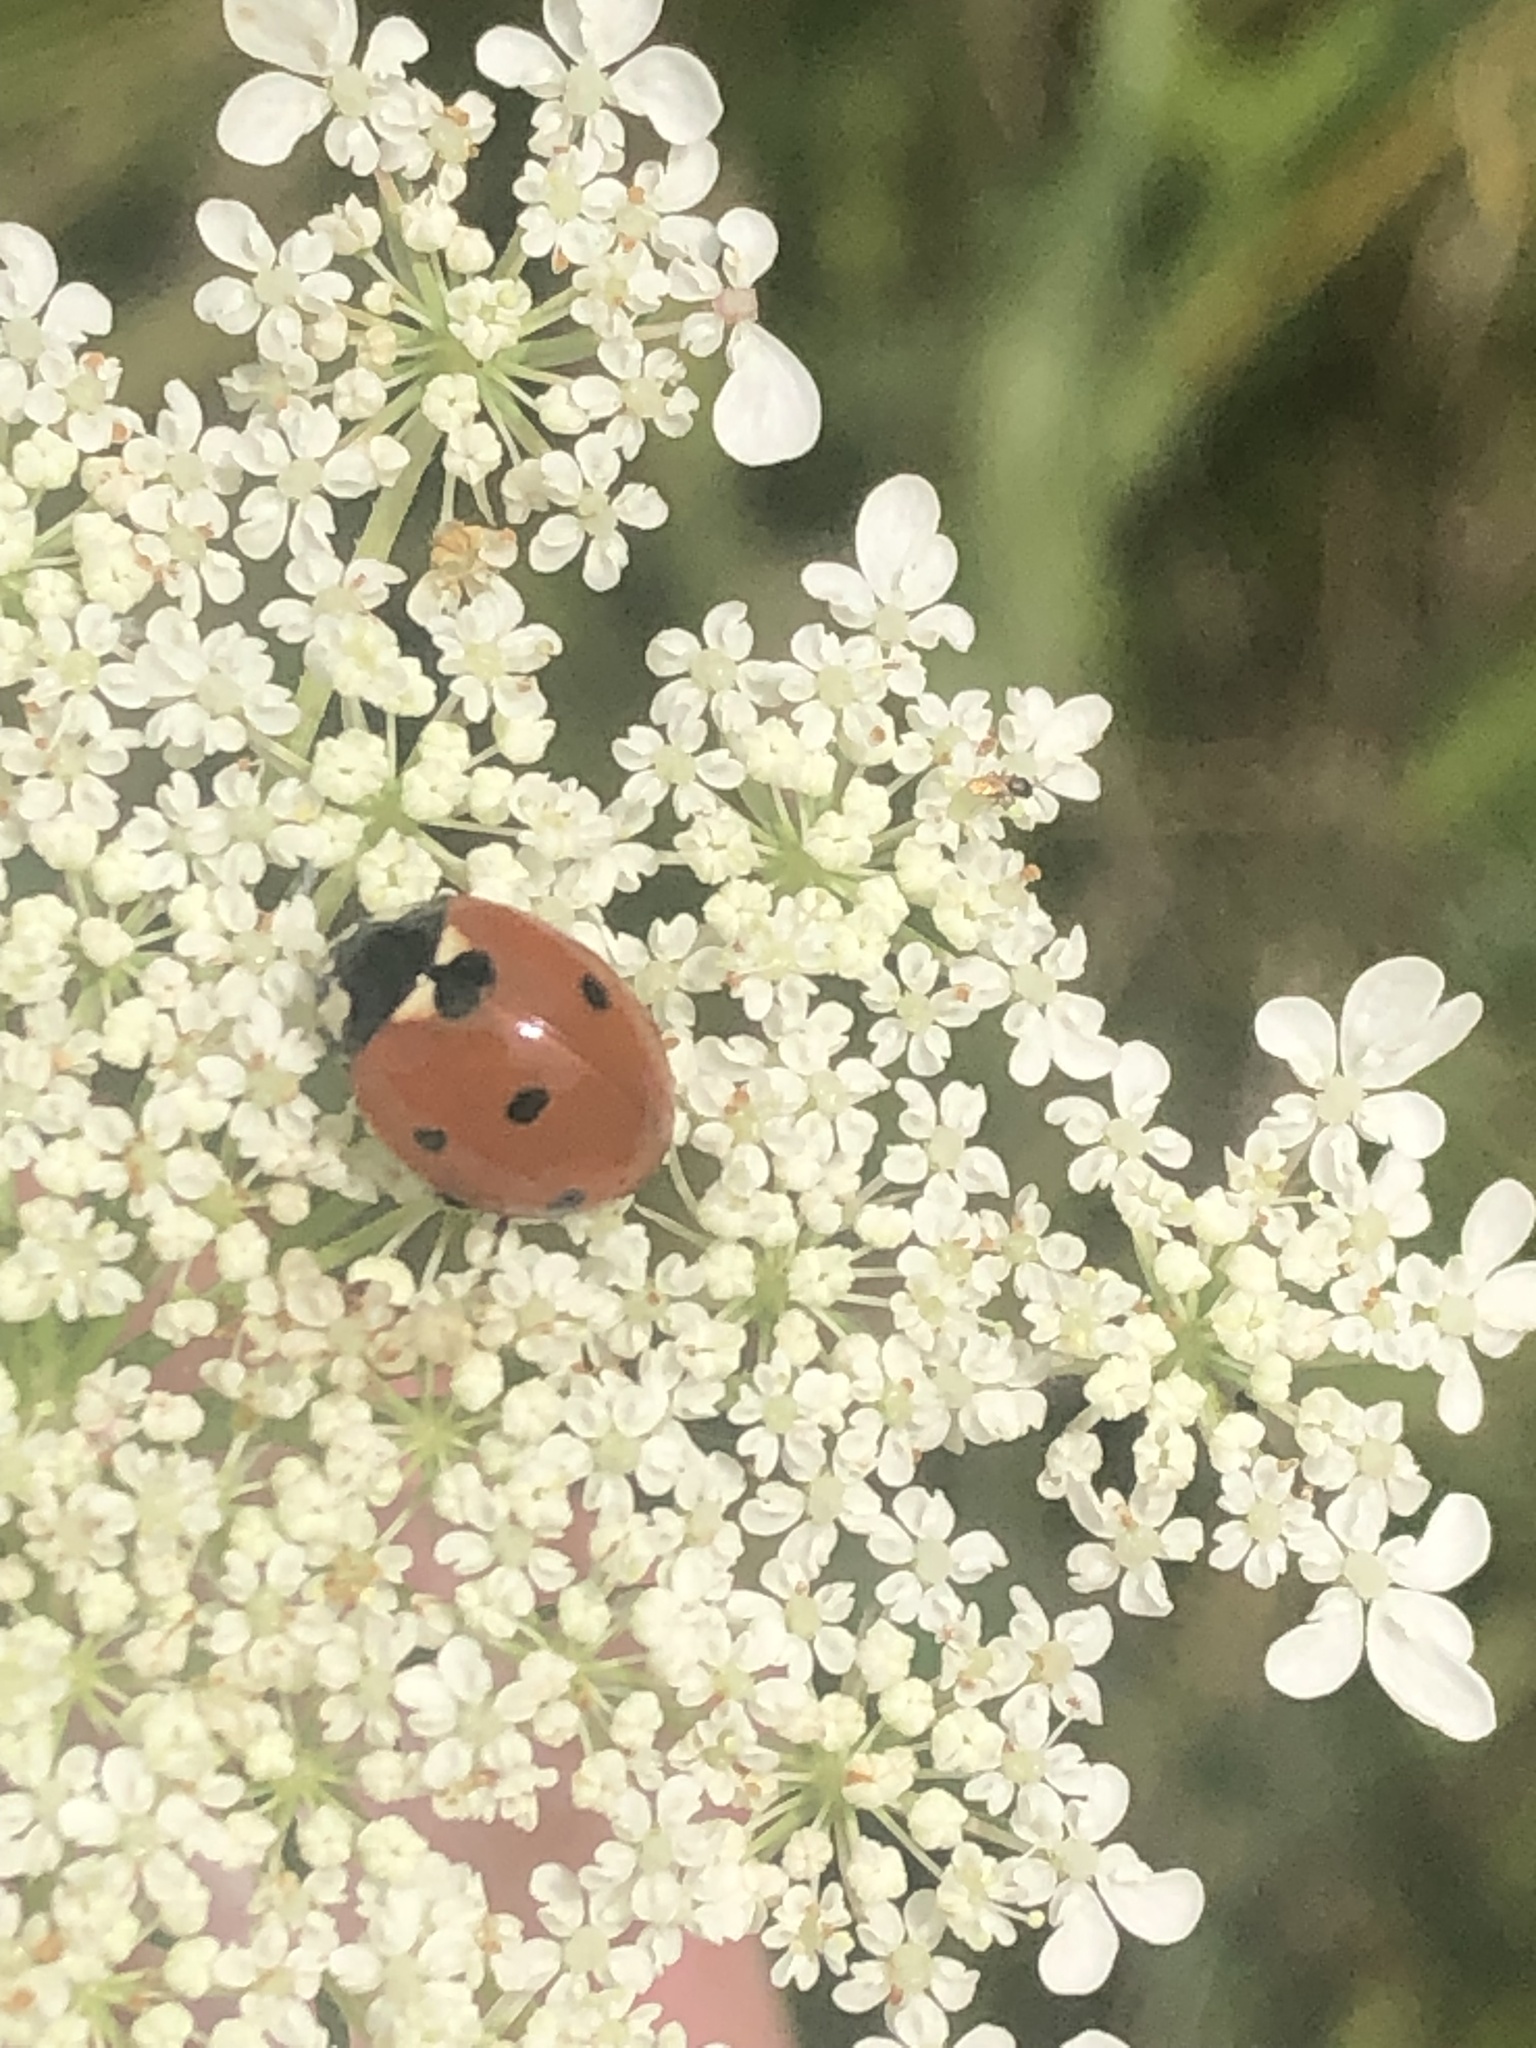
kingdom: Animalia
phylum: Arthropoda
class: Insecta
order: Coleoptera
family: Coccinellidae
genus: Coccinella
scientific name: Coccinella septempunctata
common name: Sevenspotted lady beetle
